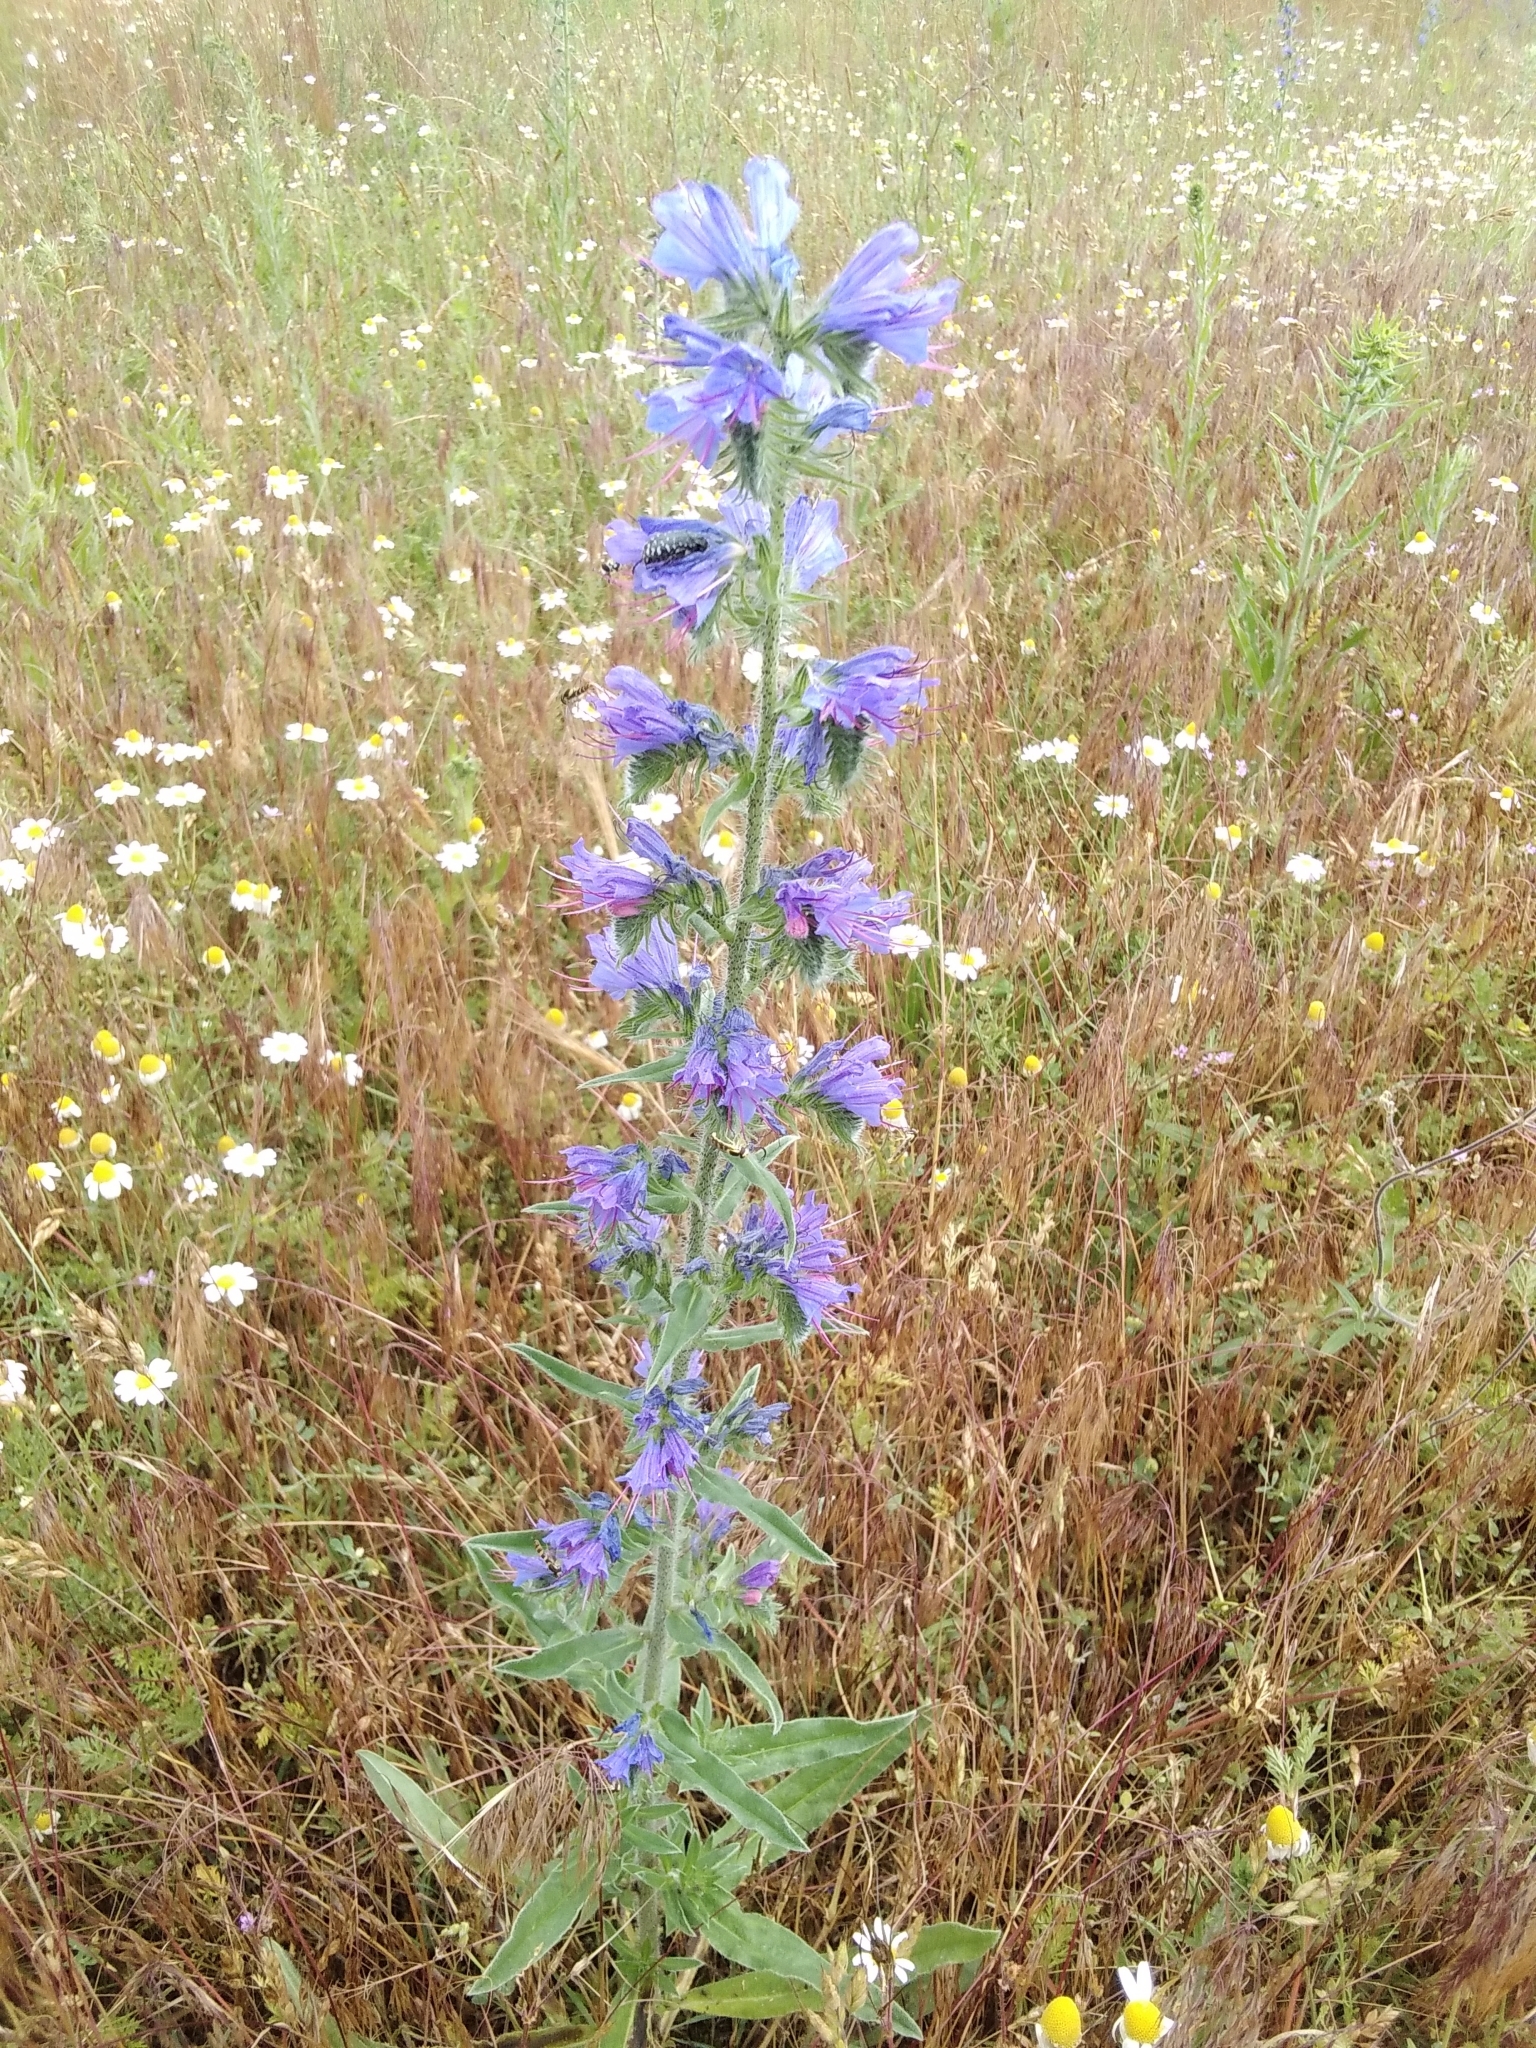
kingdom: Plantae
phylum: Tracheophyta
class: Magnoliopsida
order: Boraginales
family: Boraginaceae
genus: Echium
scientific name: Echium vulgare
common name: Common viper's bugloss
